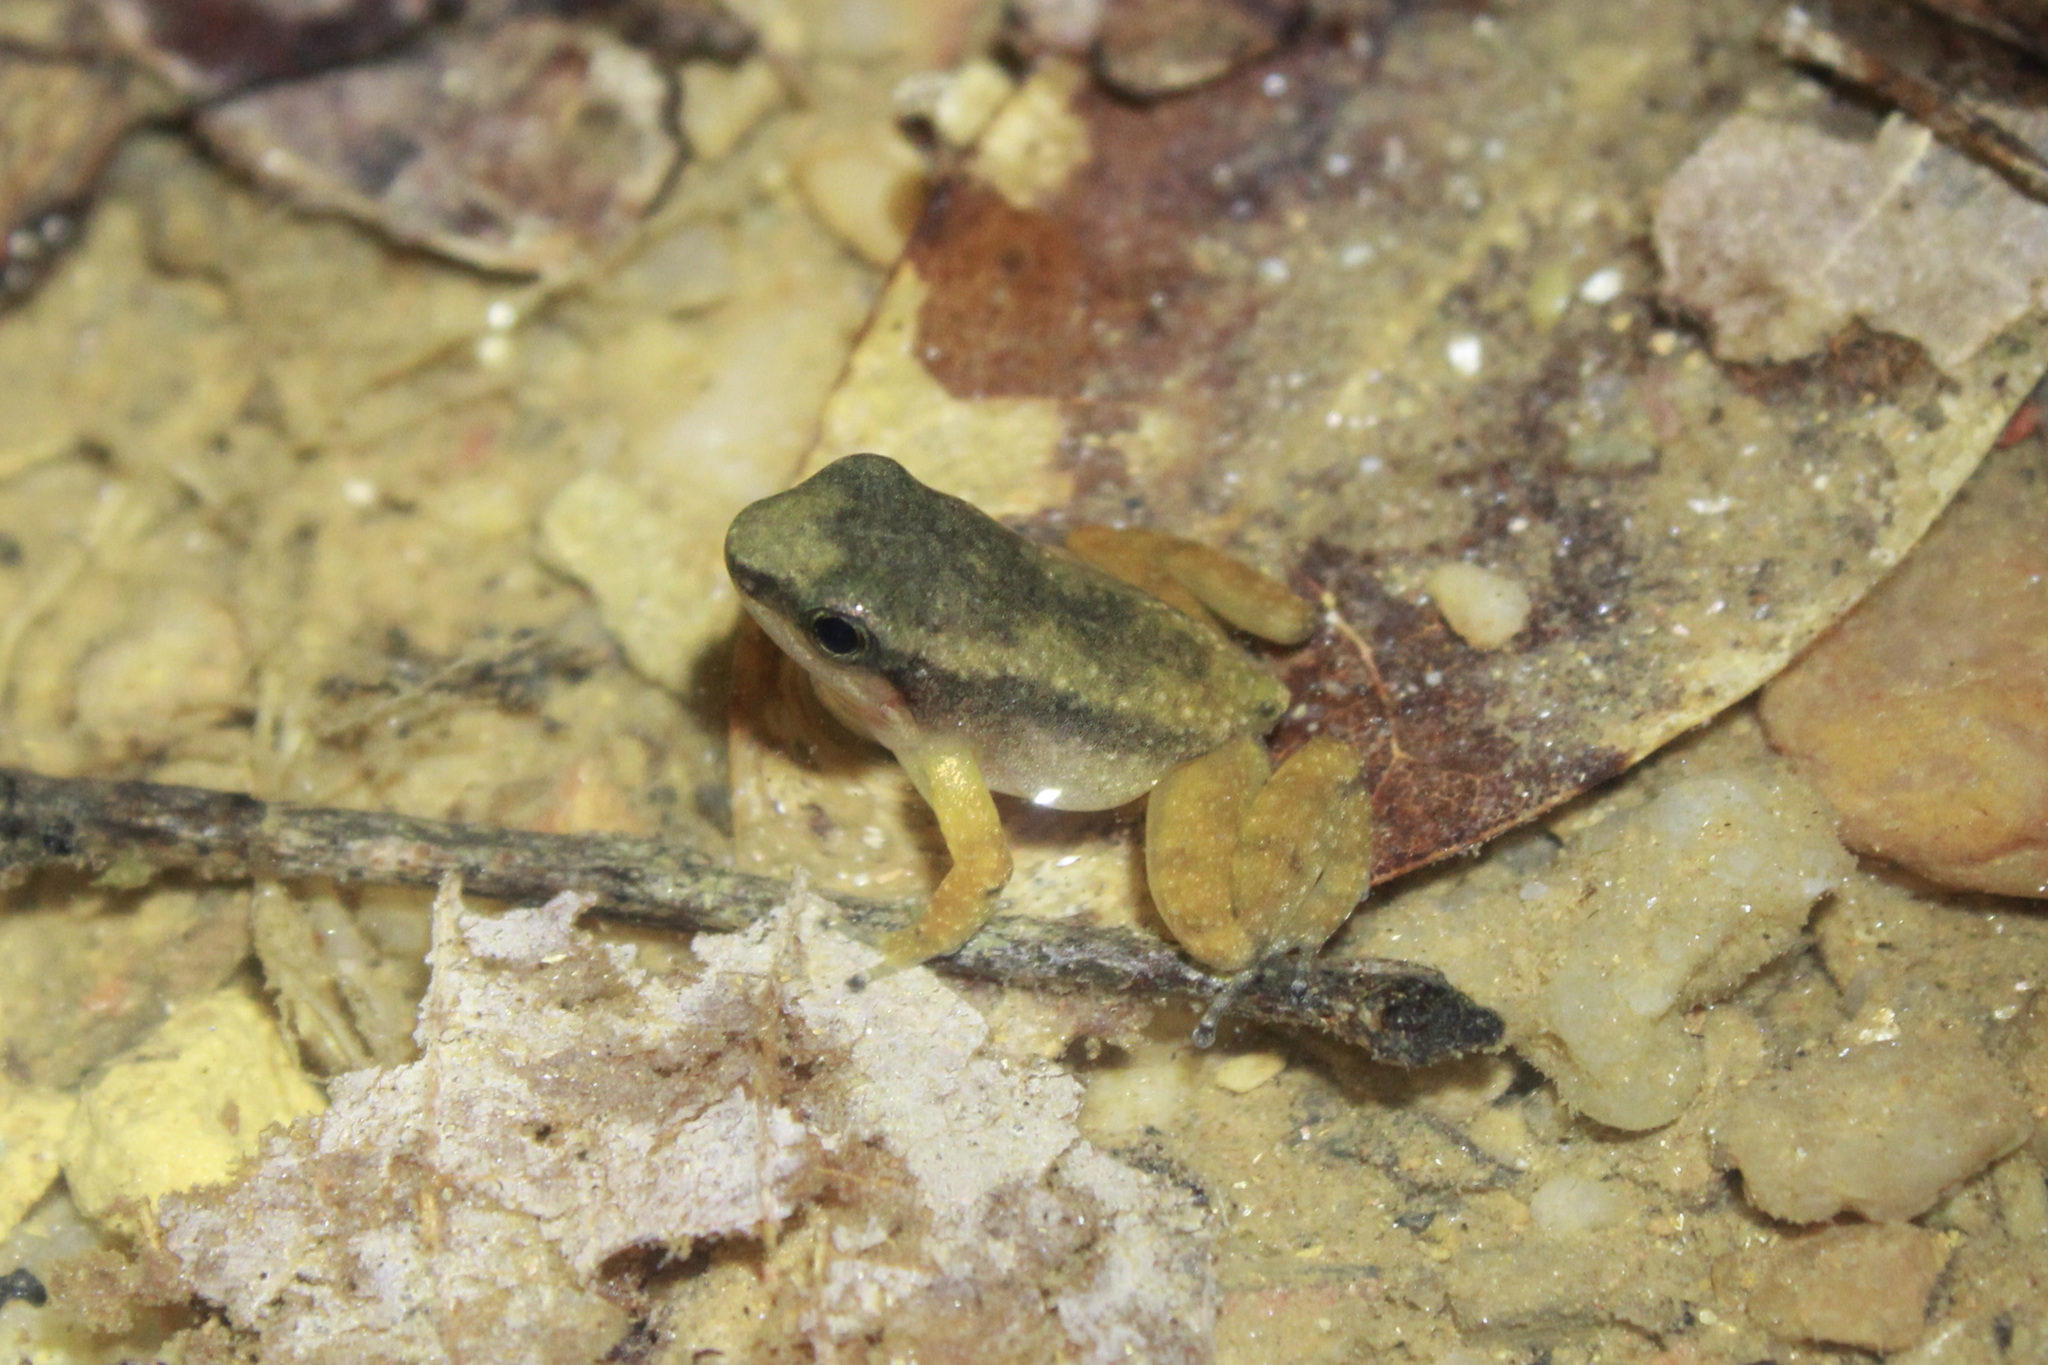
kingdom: Animalia
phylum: Chordata
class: Amphibia
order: Anura
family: Aromobatidae
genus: Mannophryne
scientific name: Mannophryne trinitatis
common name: Trinidad poison frog
